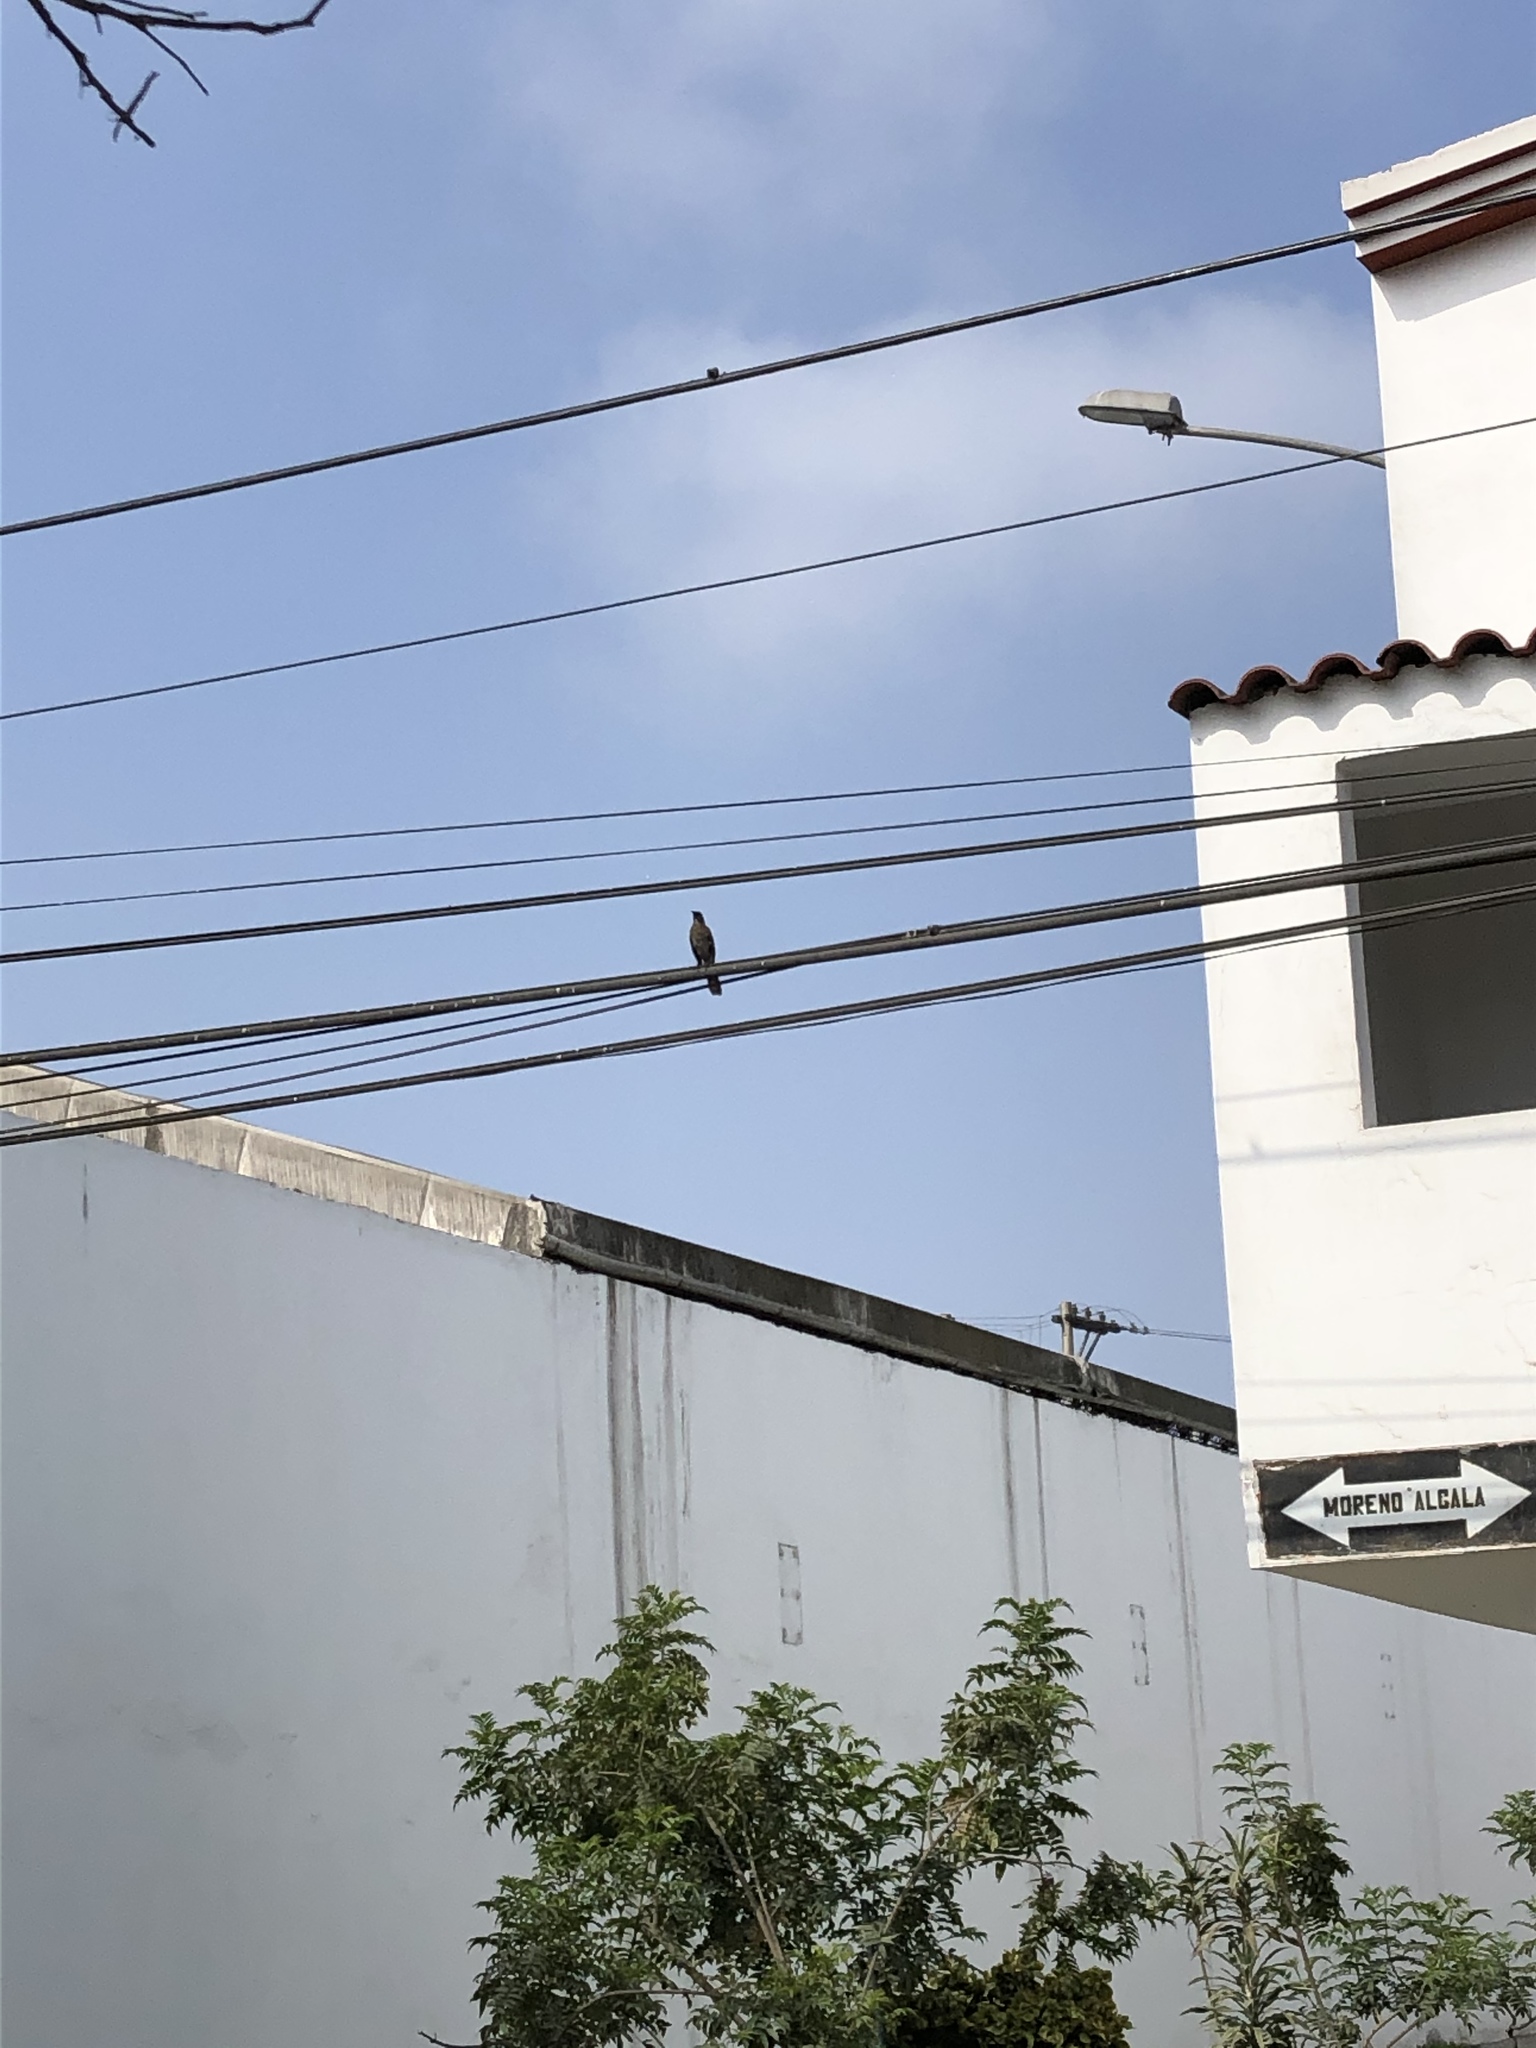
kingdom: Animalia
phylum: Chordata
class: Aves
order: Passeriformes
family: Mimidae
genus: Mimus
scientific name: Mimus longicaudatus
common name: Long-tailed mockingbird
